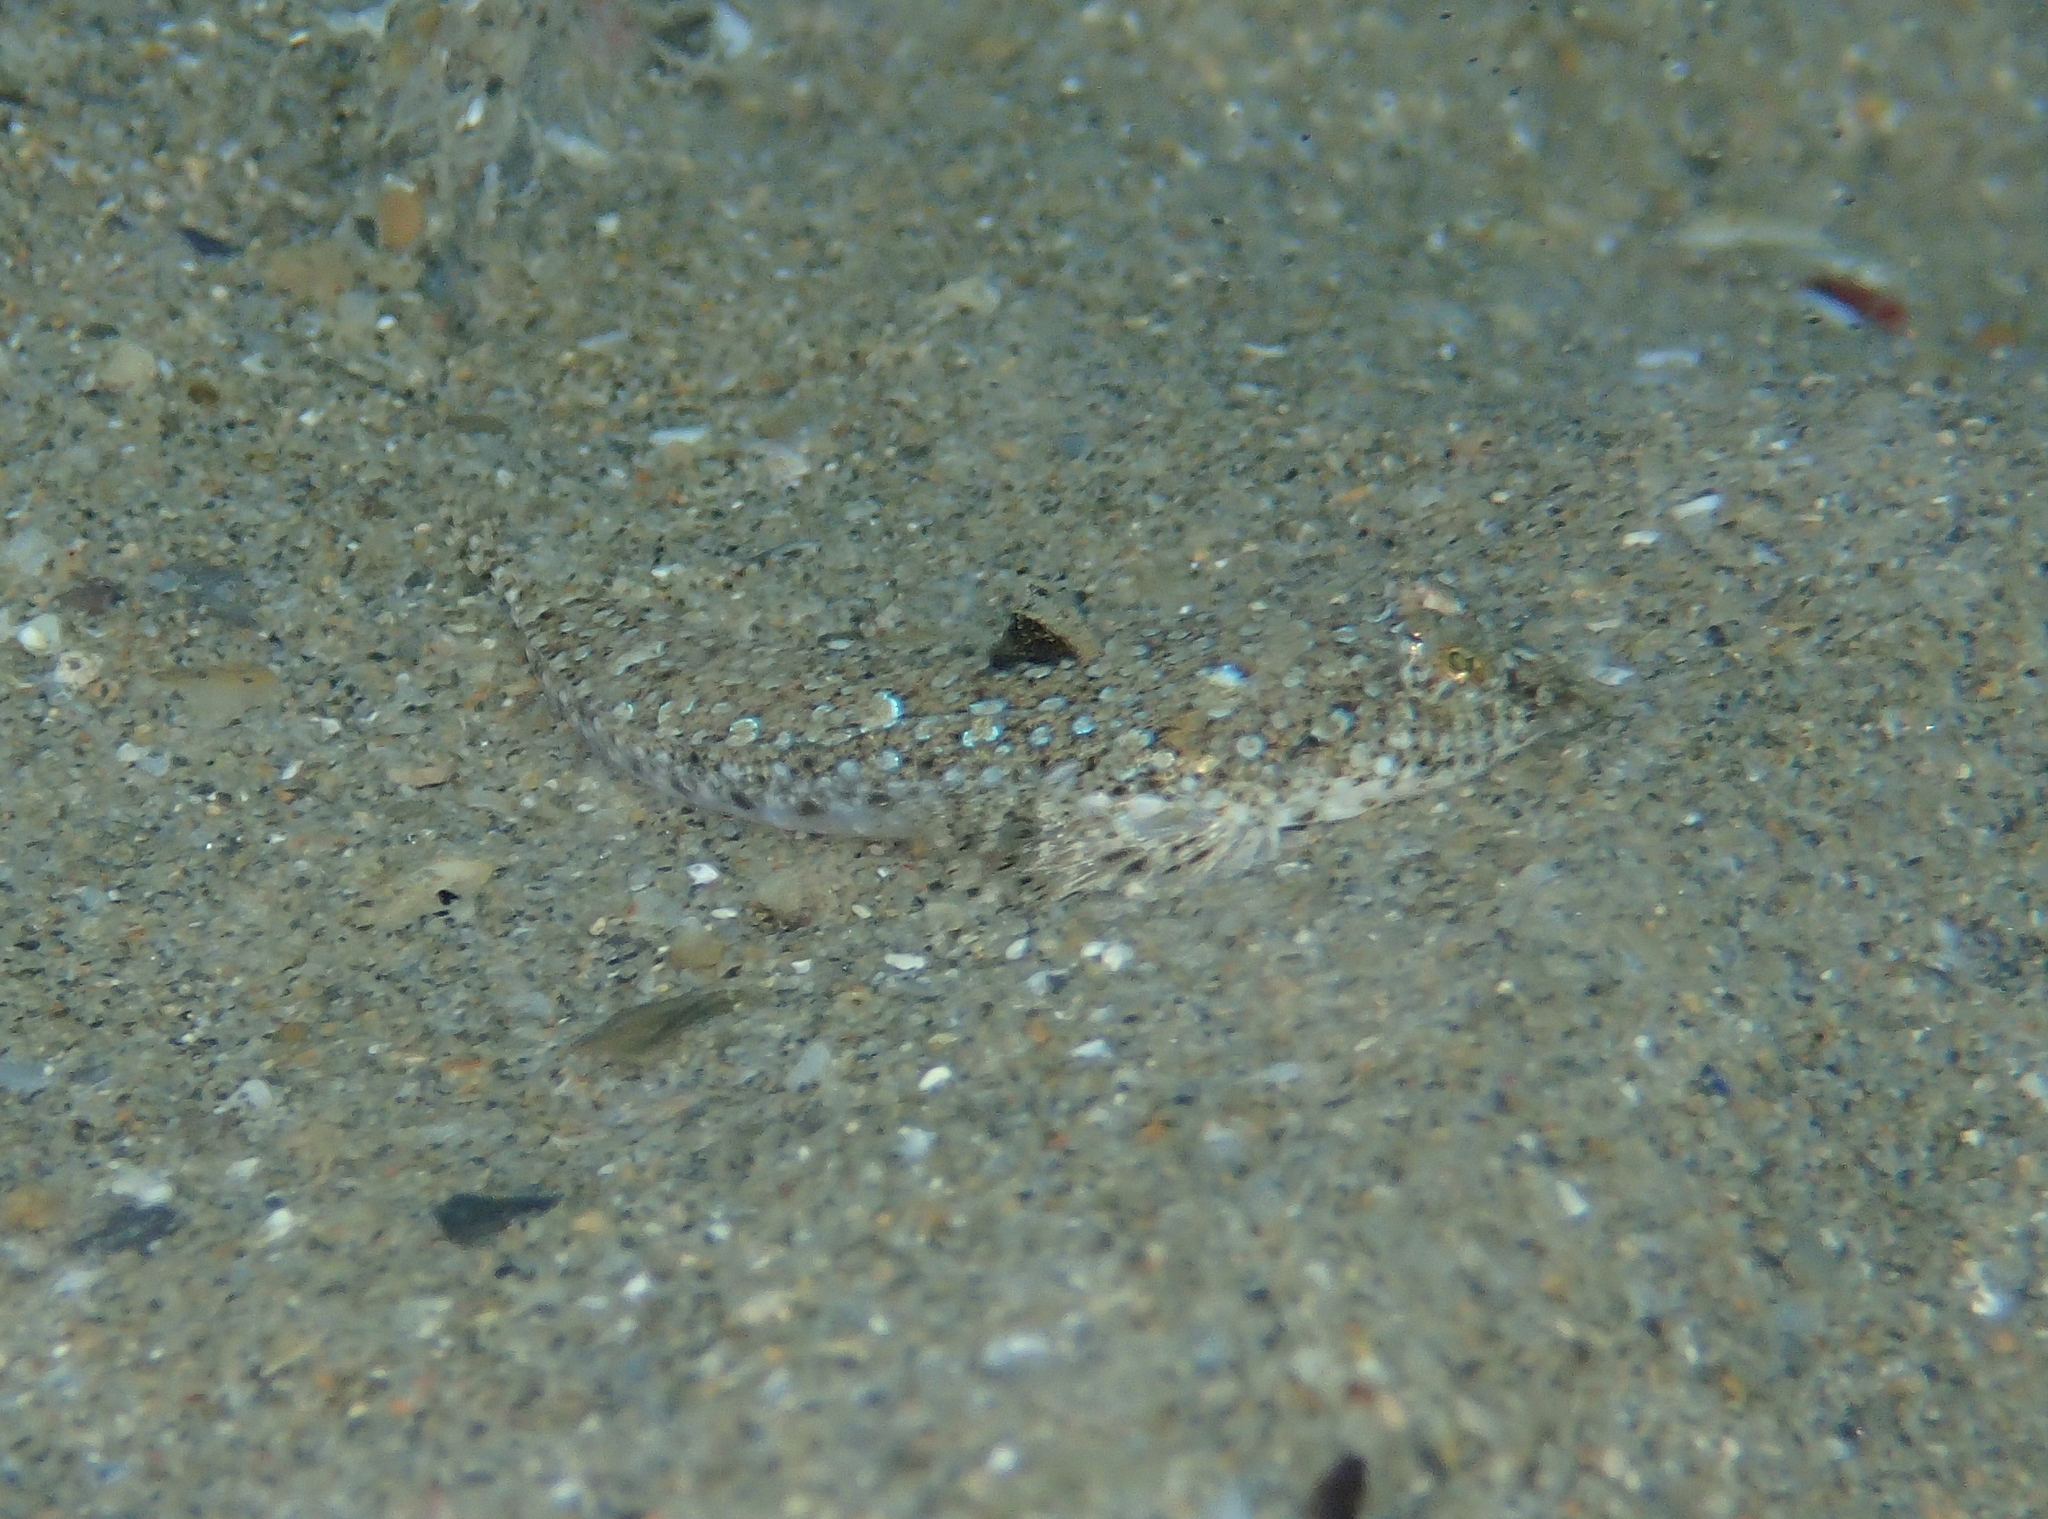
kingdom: Animalia
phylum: Chordata
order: Perciformes
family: Callionymidae
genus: Callionymus
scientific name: Callionymus risso
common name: Risso’s dragonet
